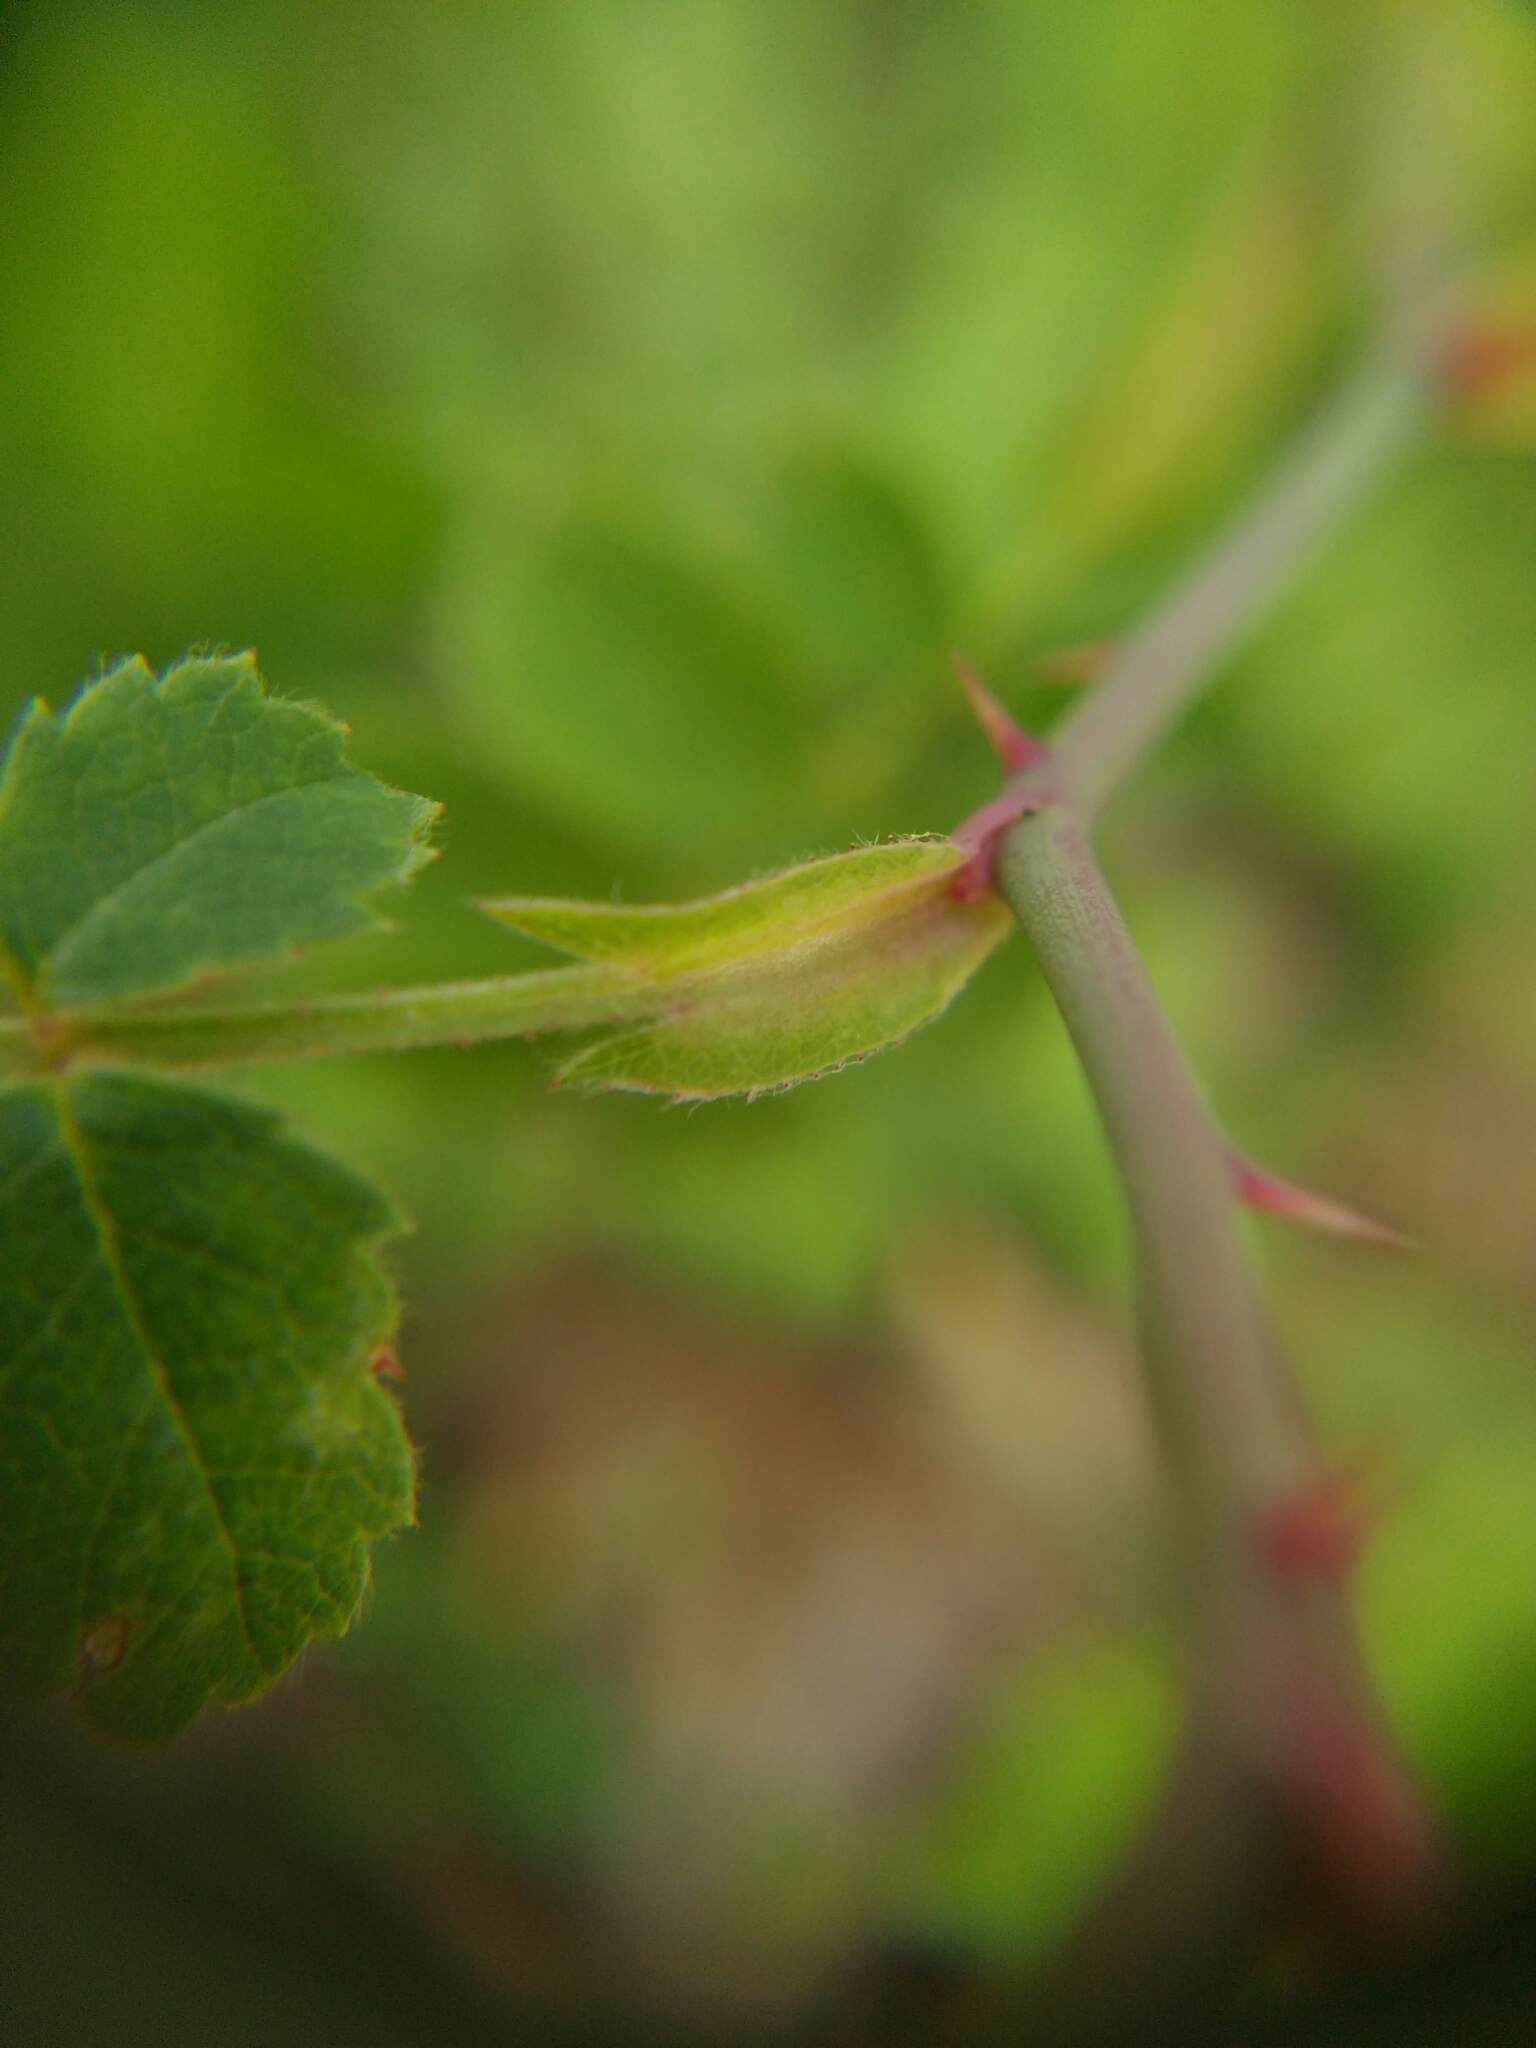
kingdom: Plantae
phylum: Tracheophyta
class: Magnoliopsida
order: Rosales
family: Rosaceae
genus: Rosa
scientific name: Rosa arvensis
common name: Field rose
